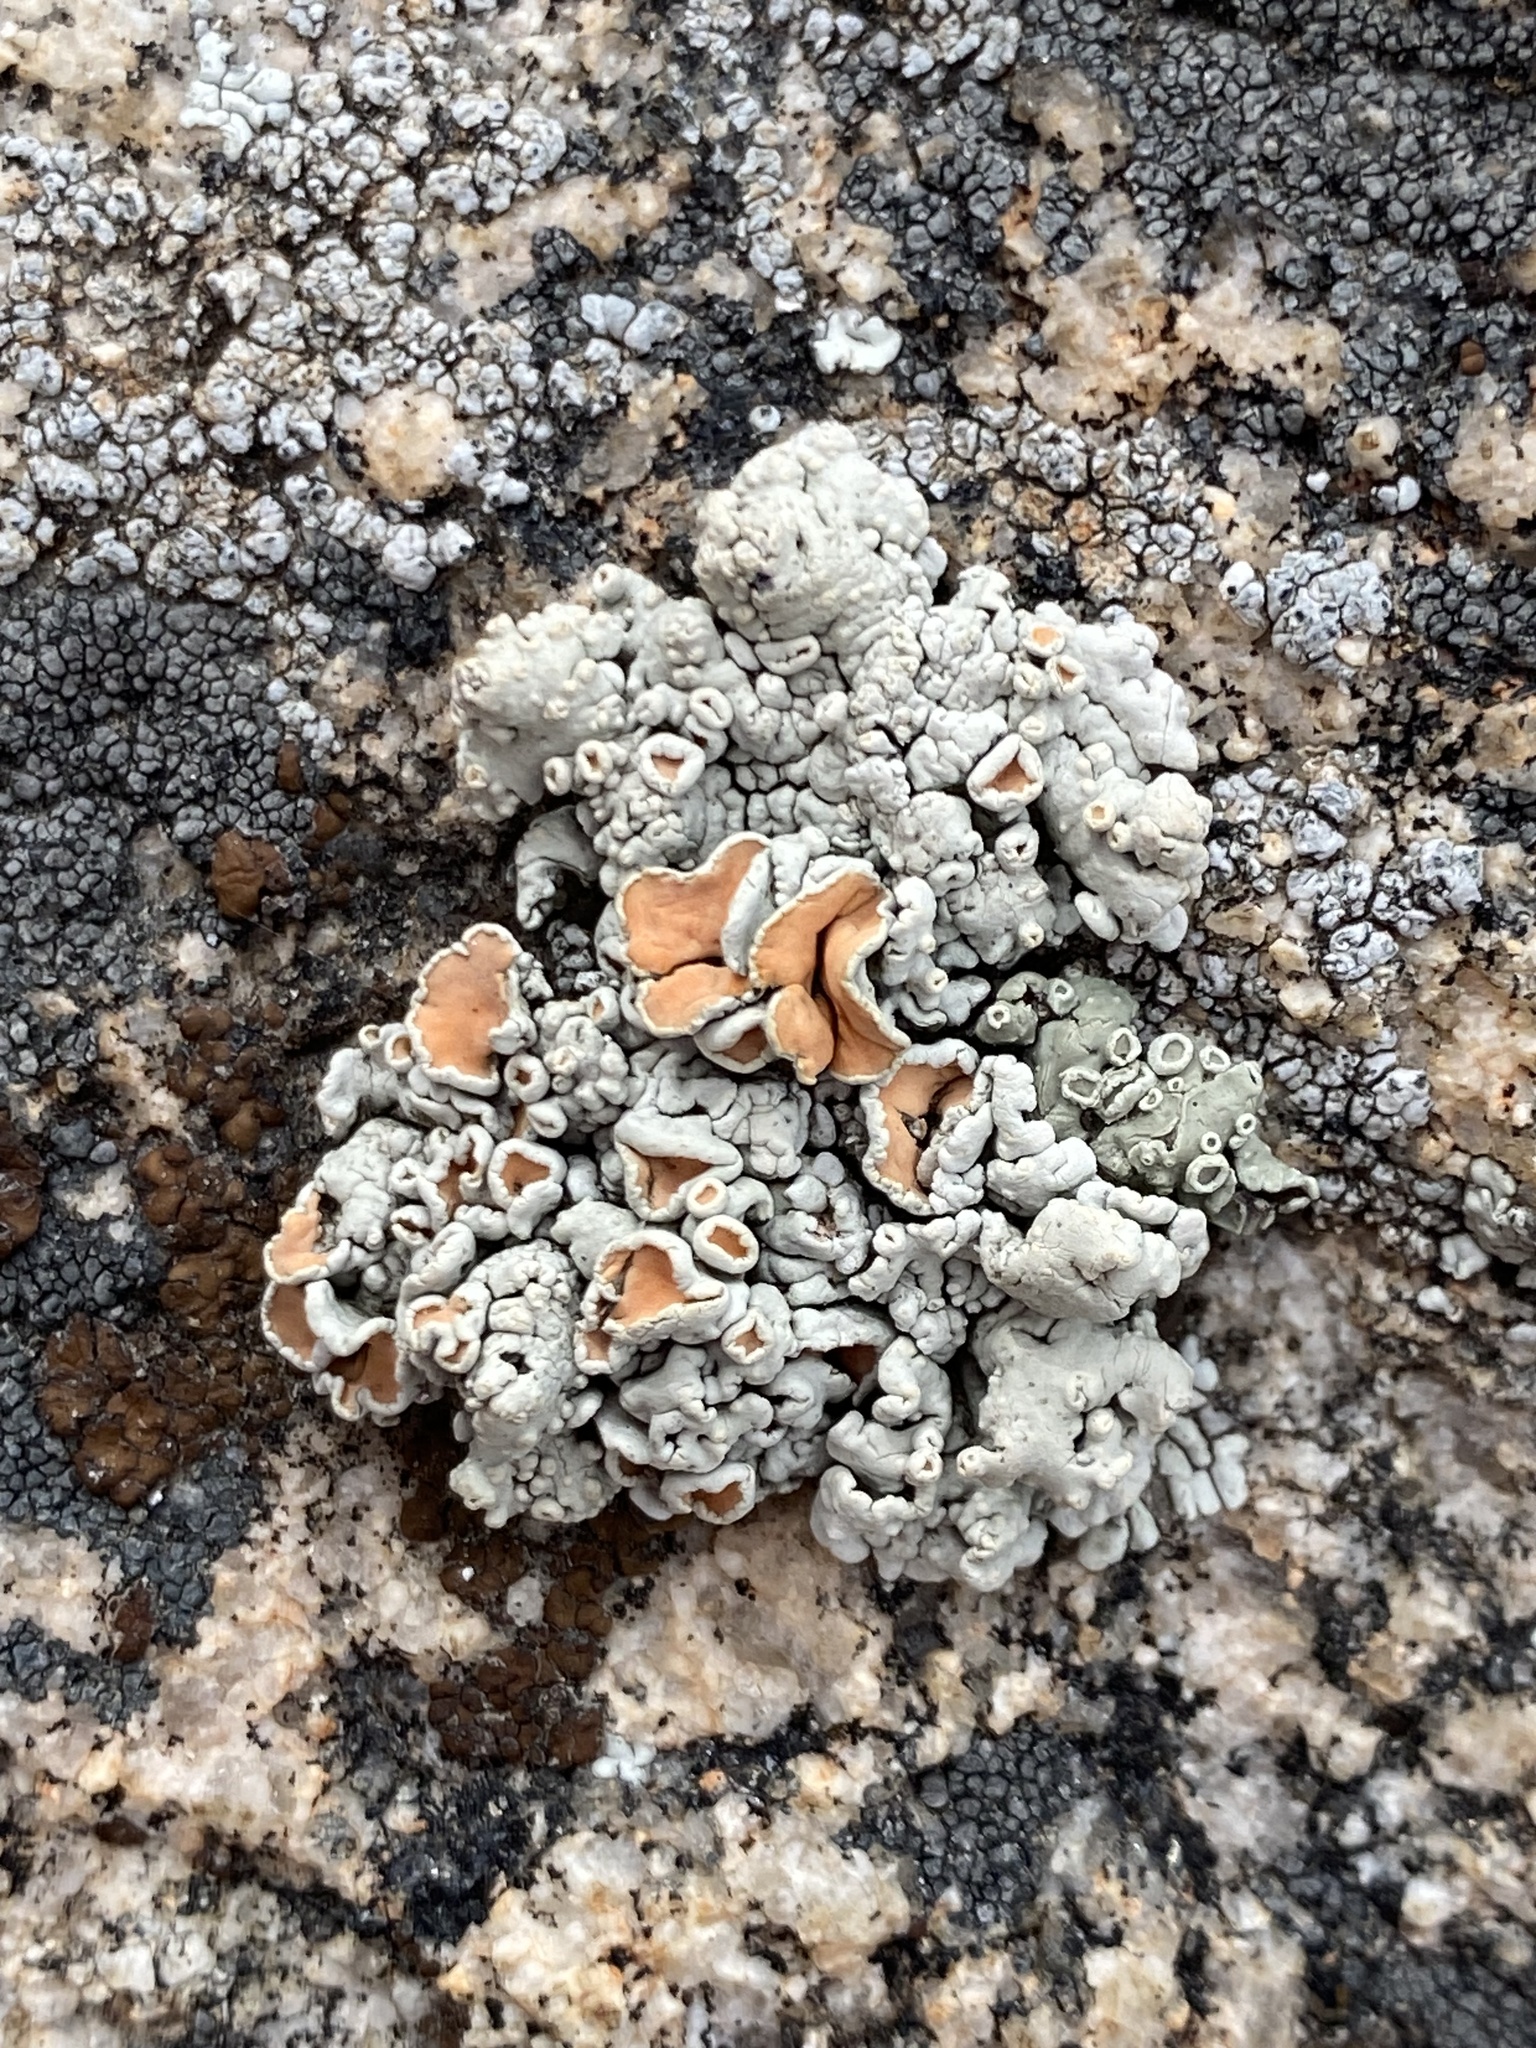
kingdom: Fungi
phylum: Ascomycota
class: Lecanoromycetes
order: Lecanorales
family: Lecanoraceae
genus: Omphalodina
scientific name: Omphalodina chrysoleuca
